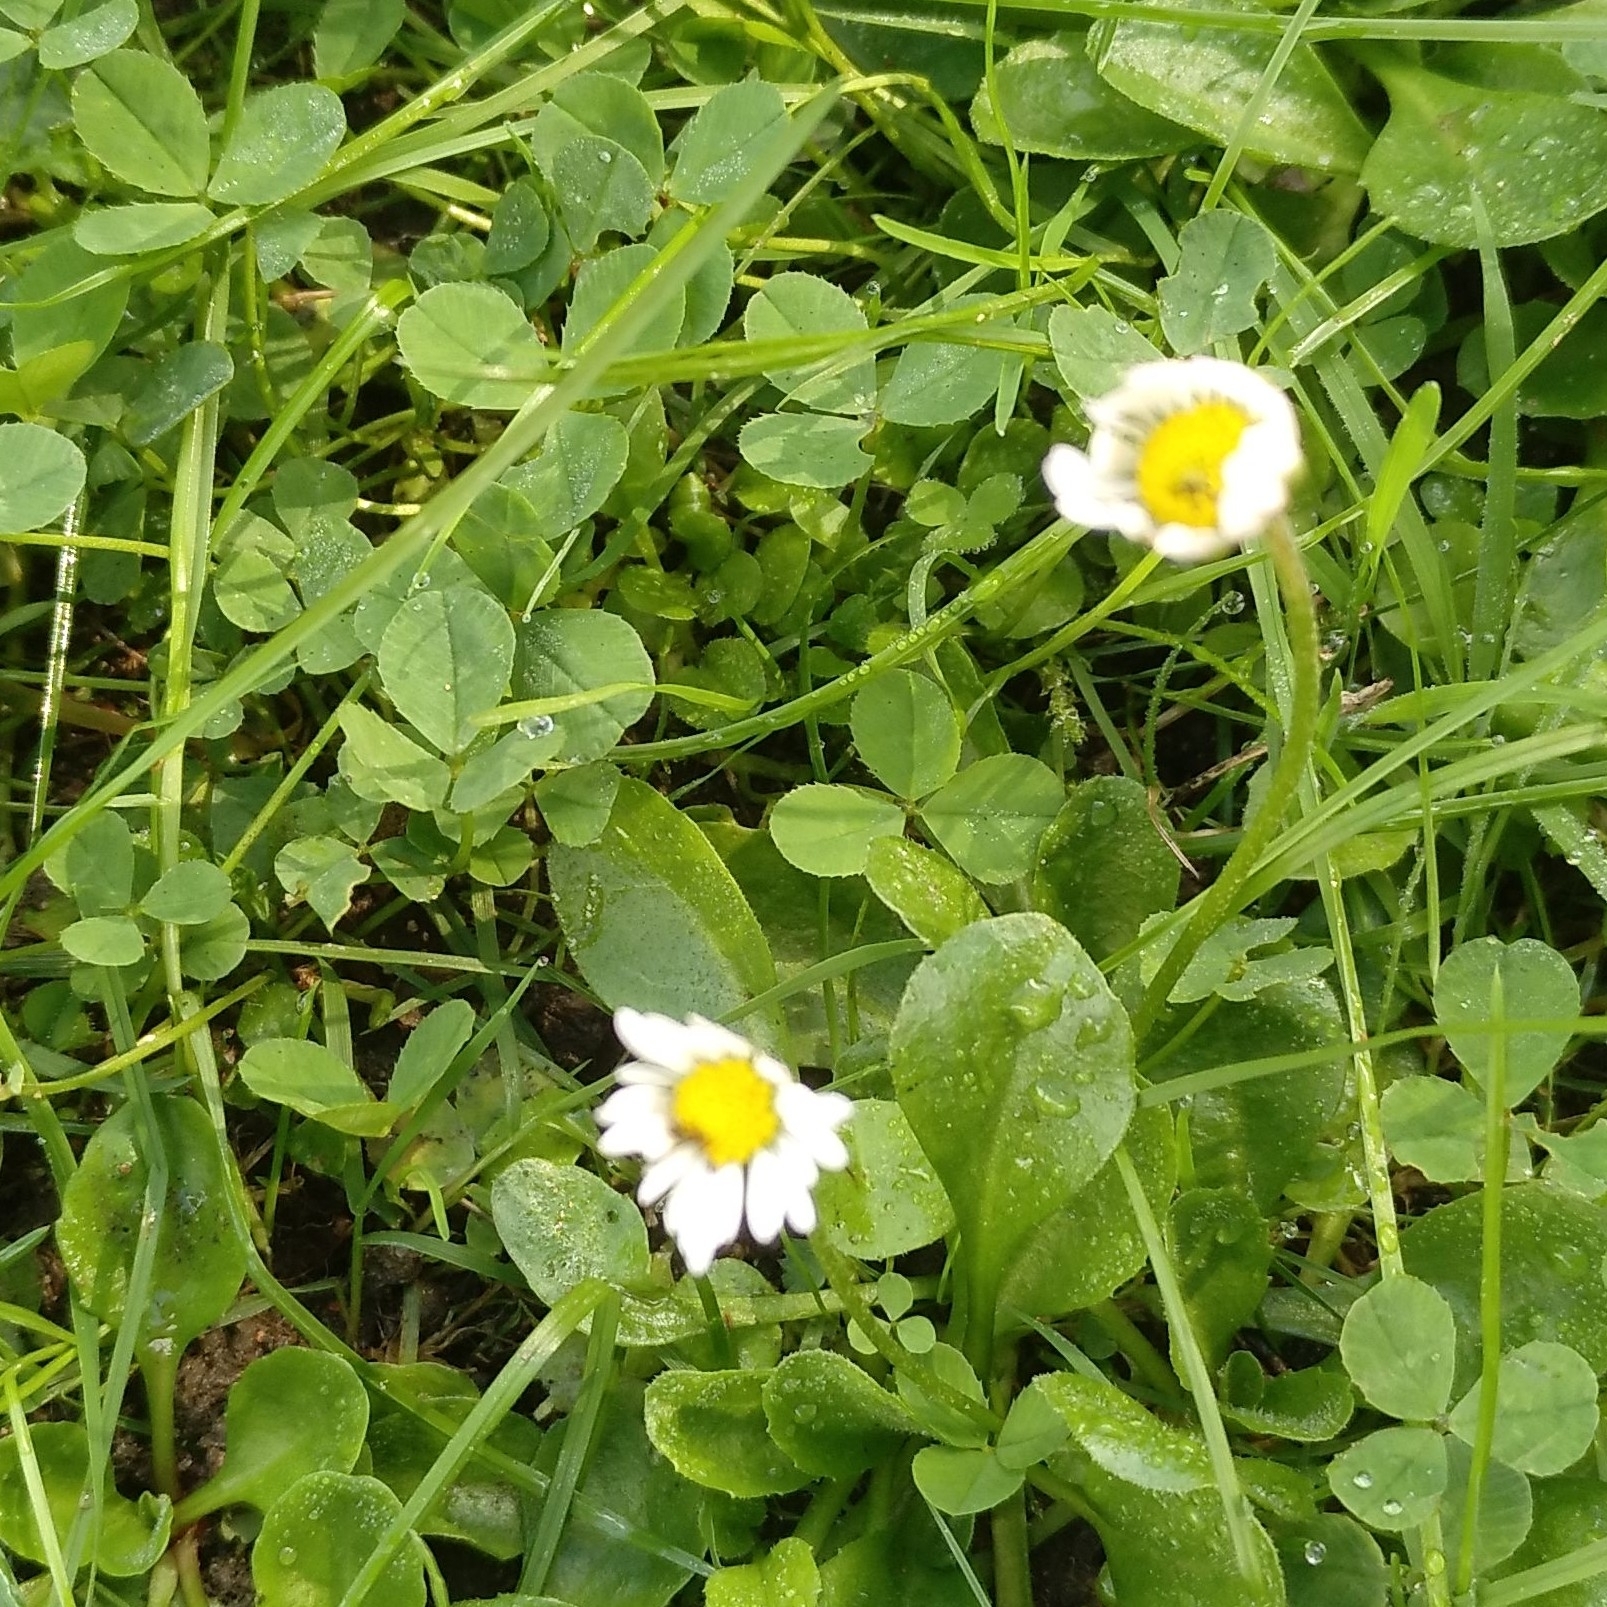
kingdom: Plantae
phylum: Tracheophyta
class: Magnoliopsida
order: Asterales
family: Asteraceae
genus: Bellis
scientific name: Bellis perennis
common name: Lawndaisy
